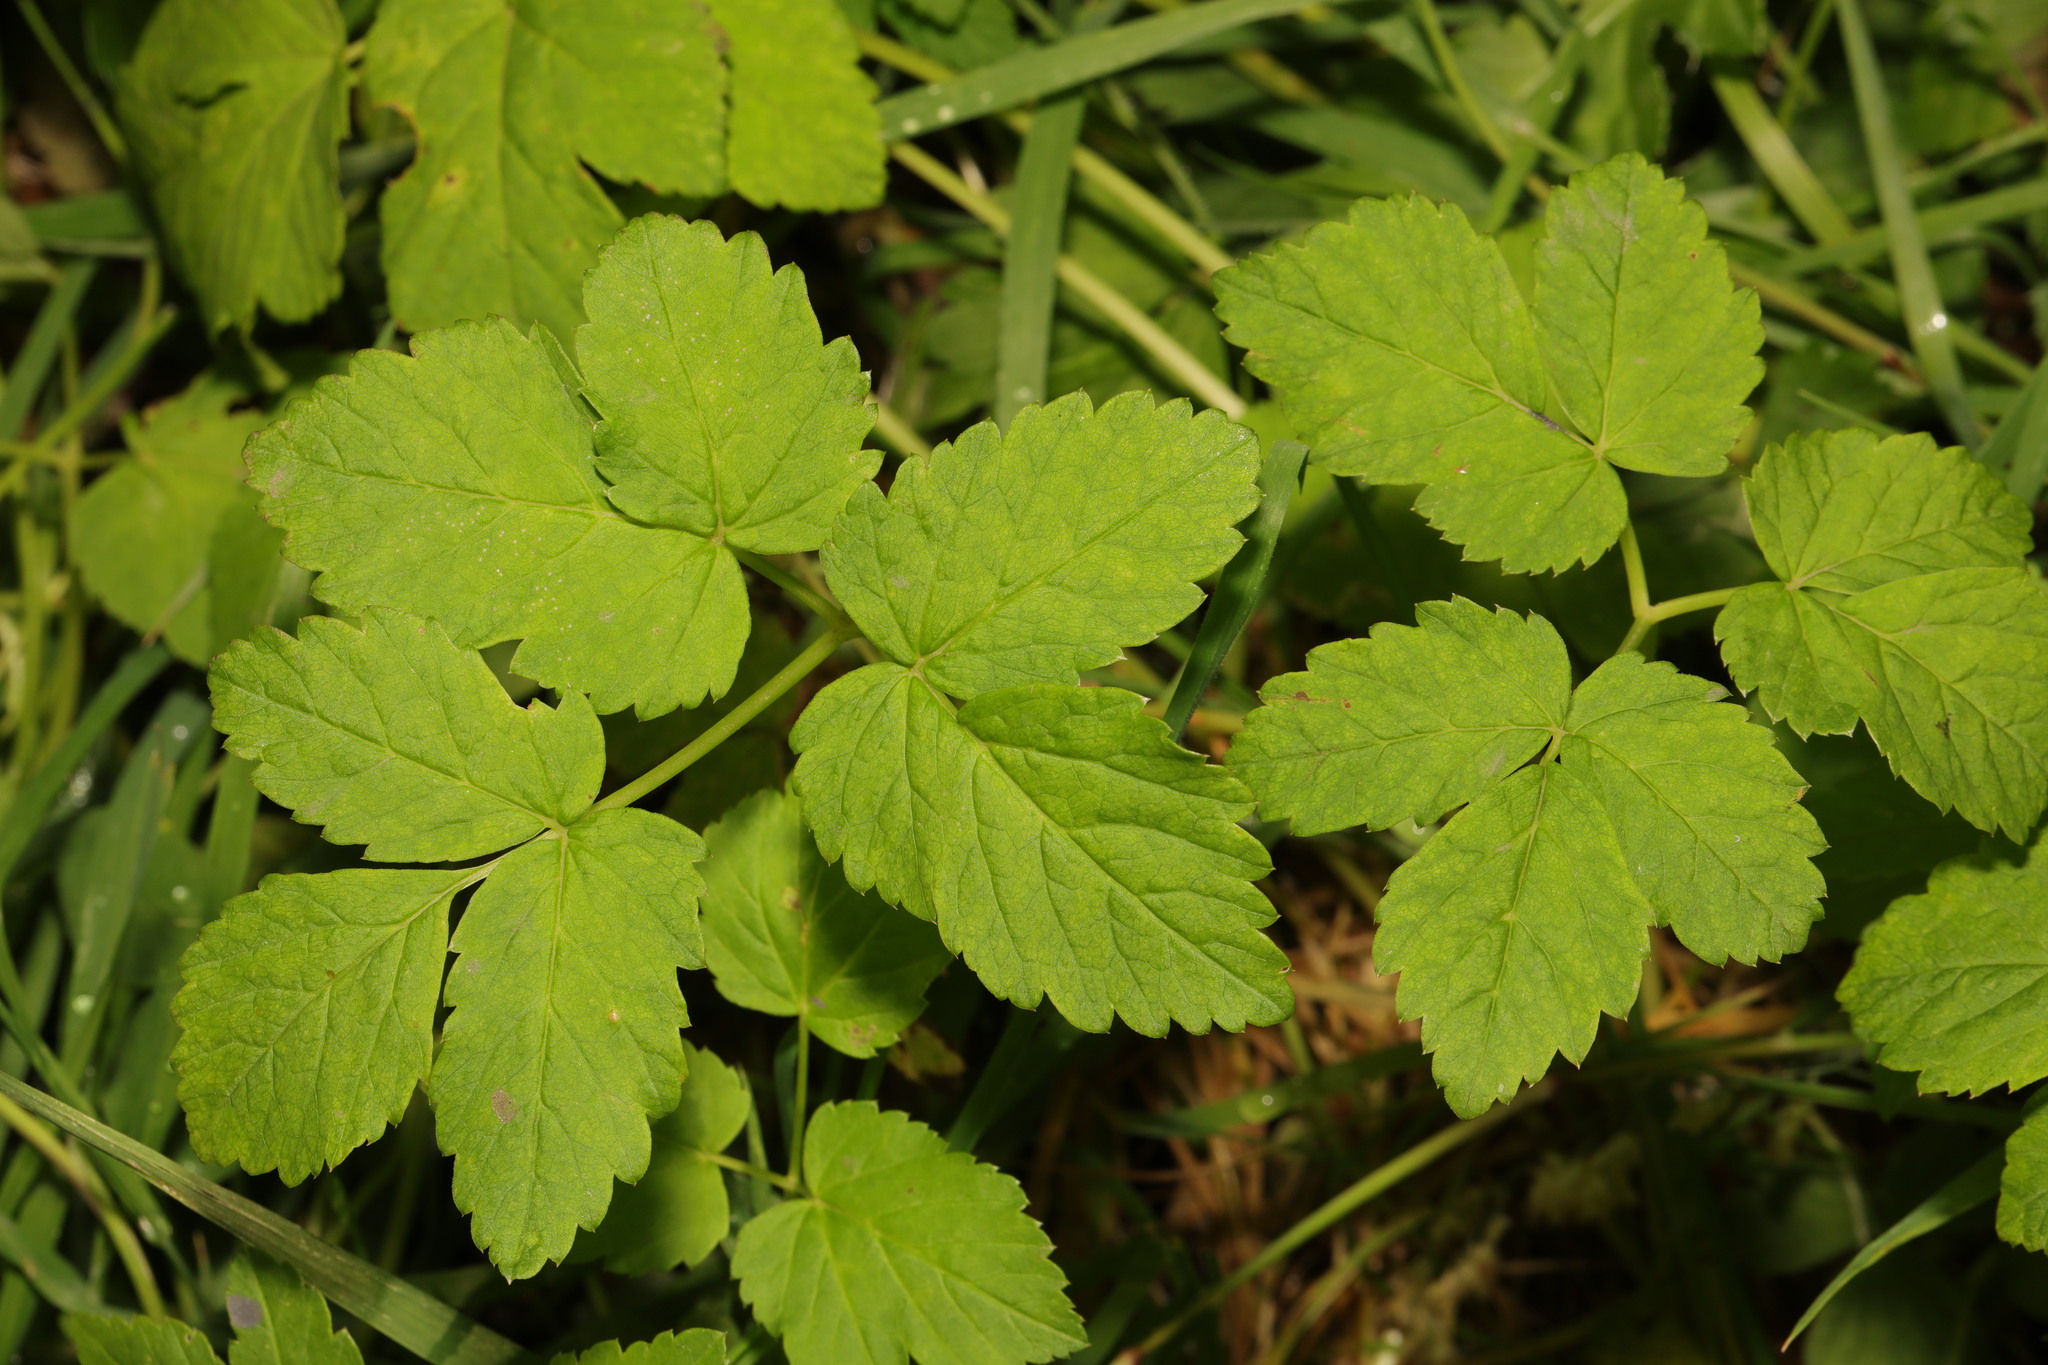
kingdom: Plantae
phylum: Tracheophyta
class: Magnoliopsida
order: Apiales
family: Apiaceae
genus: Aegopodium
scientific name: Aegopodium podagraria
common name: Ground-elder
